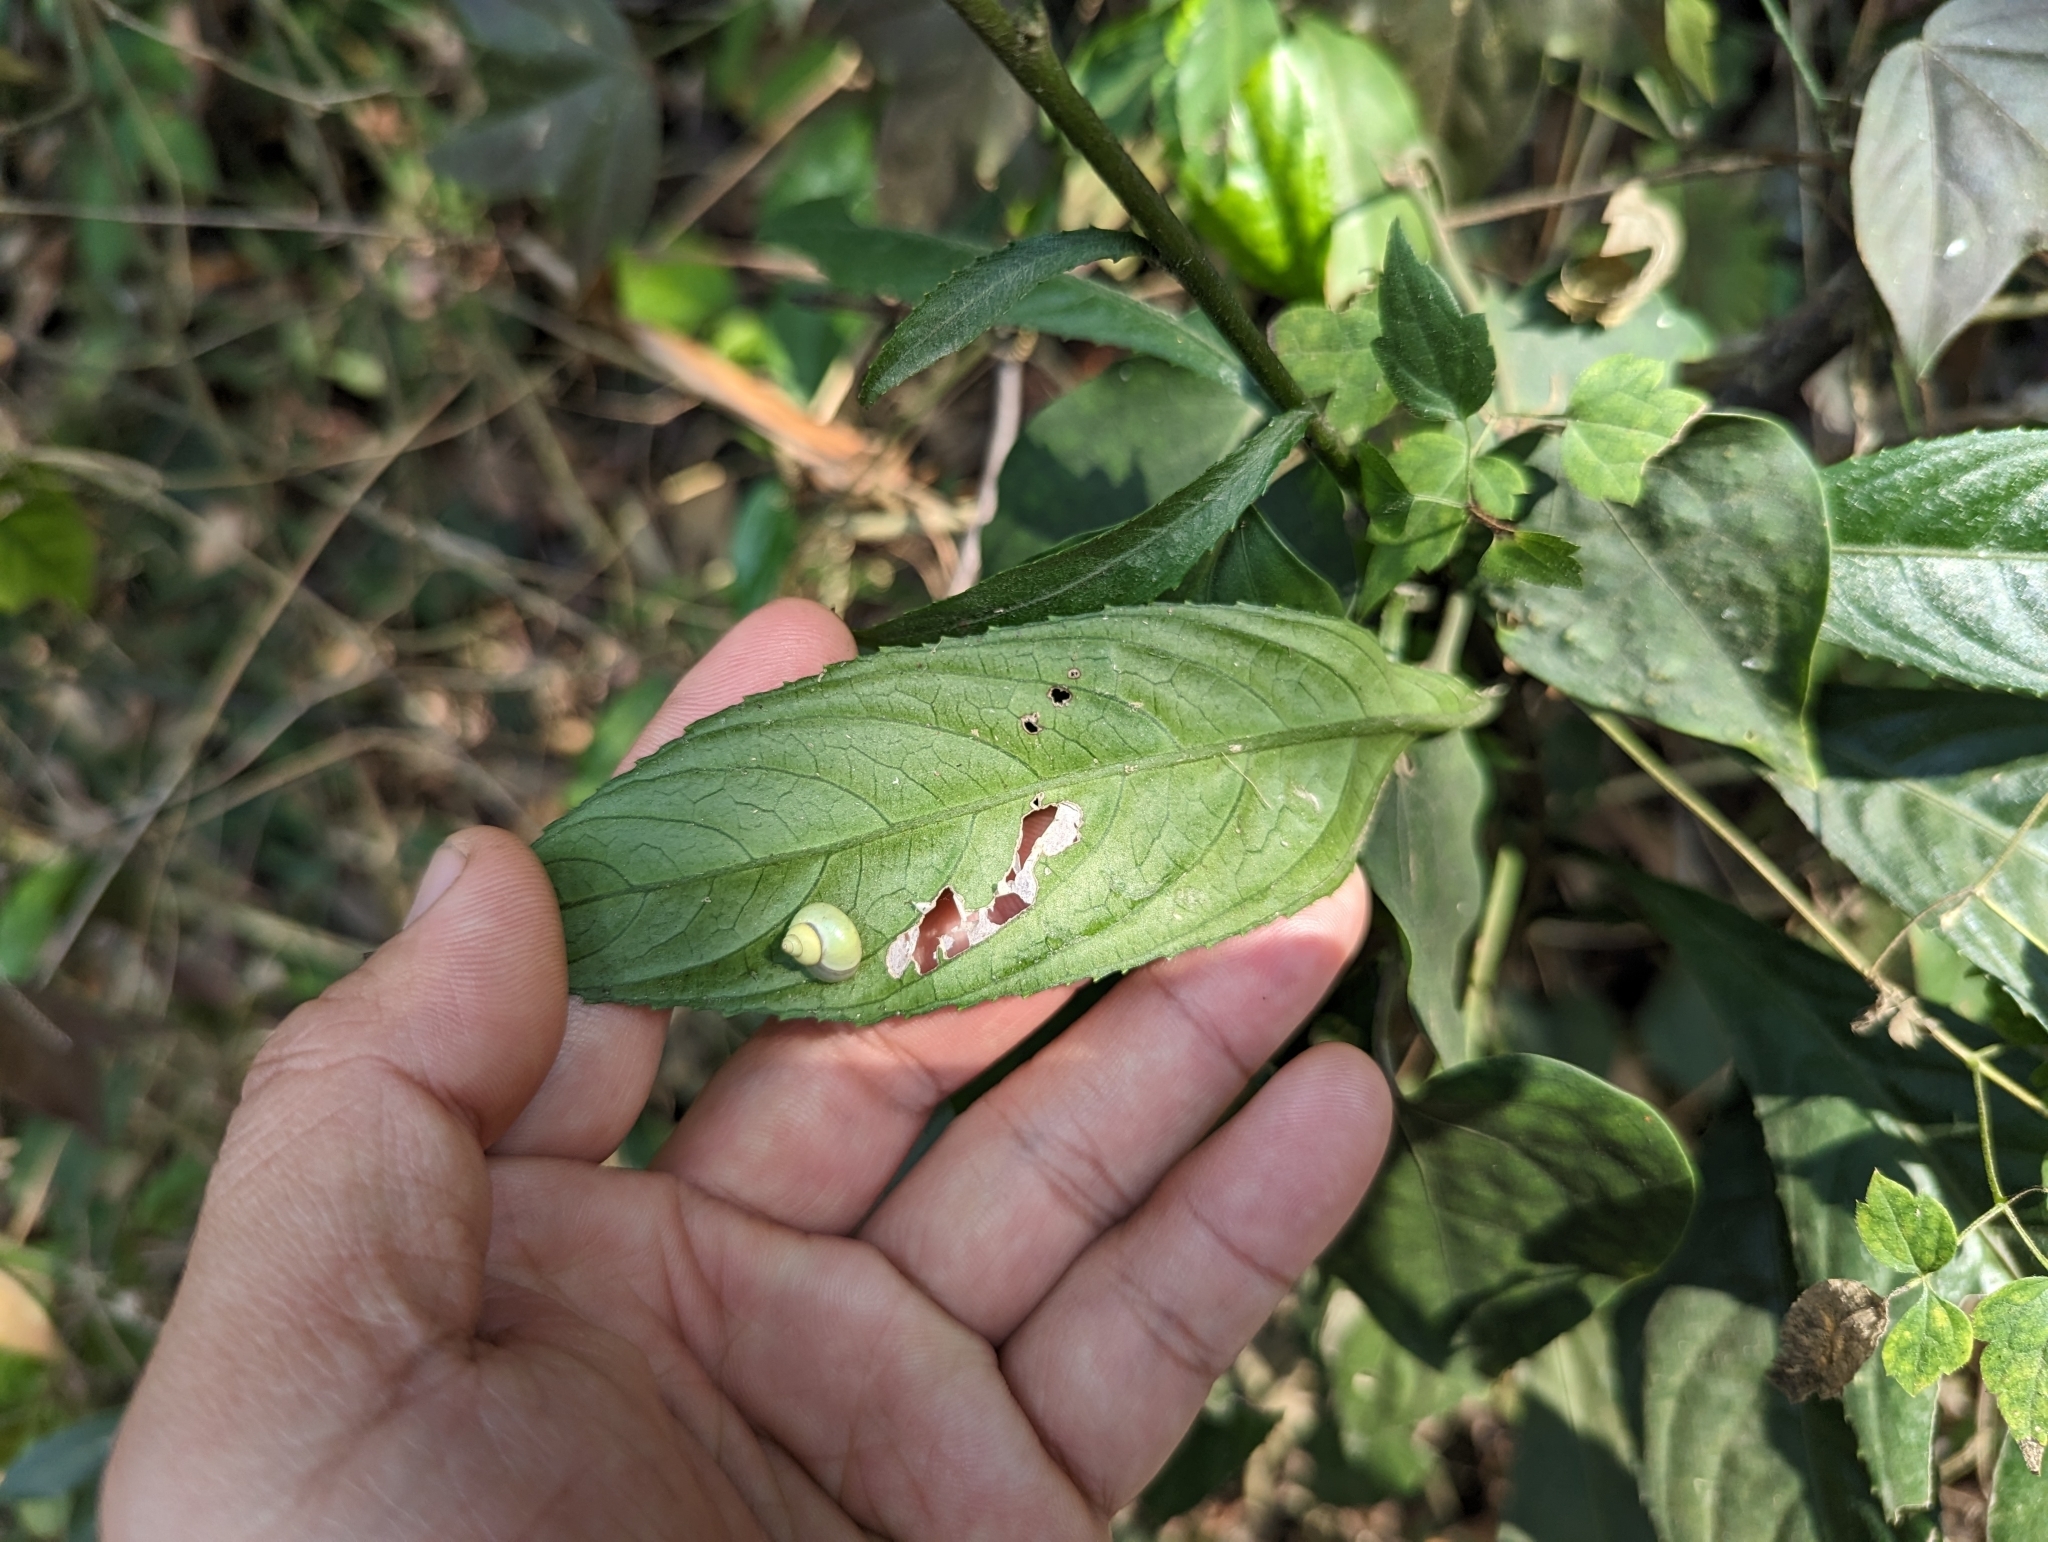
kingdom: Plantae
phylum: Tracheophyta
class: Magnoliopsida
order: Asterales
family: Asteraceae
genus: Blumea
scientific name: Blumea lanceolaria
